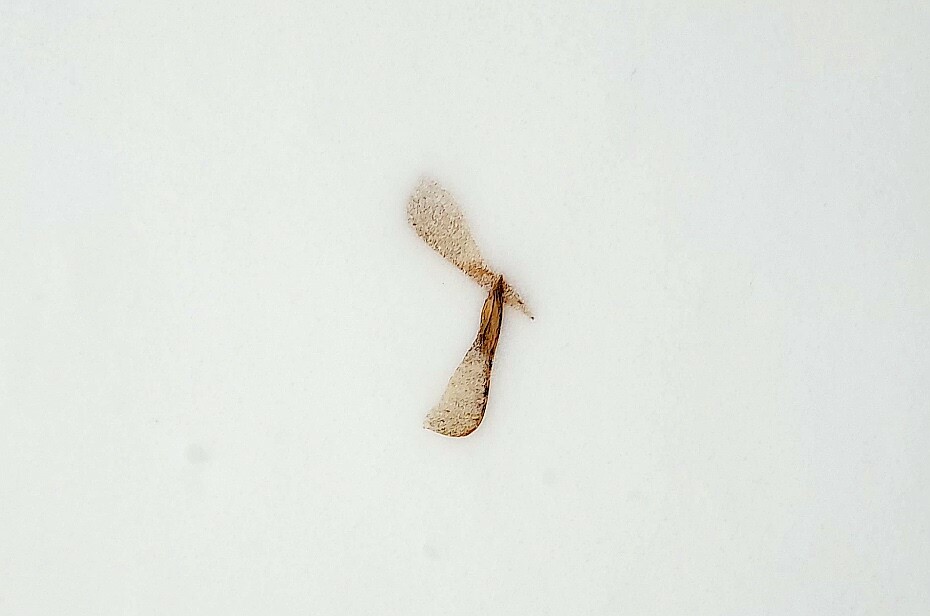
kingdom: Plantae
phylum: Tracheophyta
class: Magnoliopsida
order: Sapindales
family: Sapindaceae
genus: Acer
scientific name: Acer negundo
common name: Ashleaf maple
